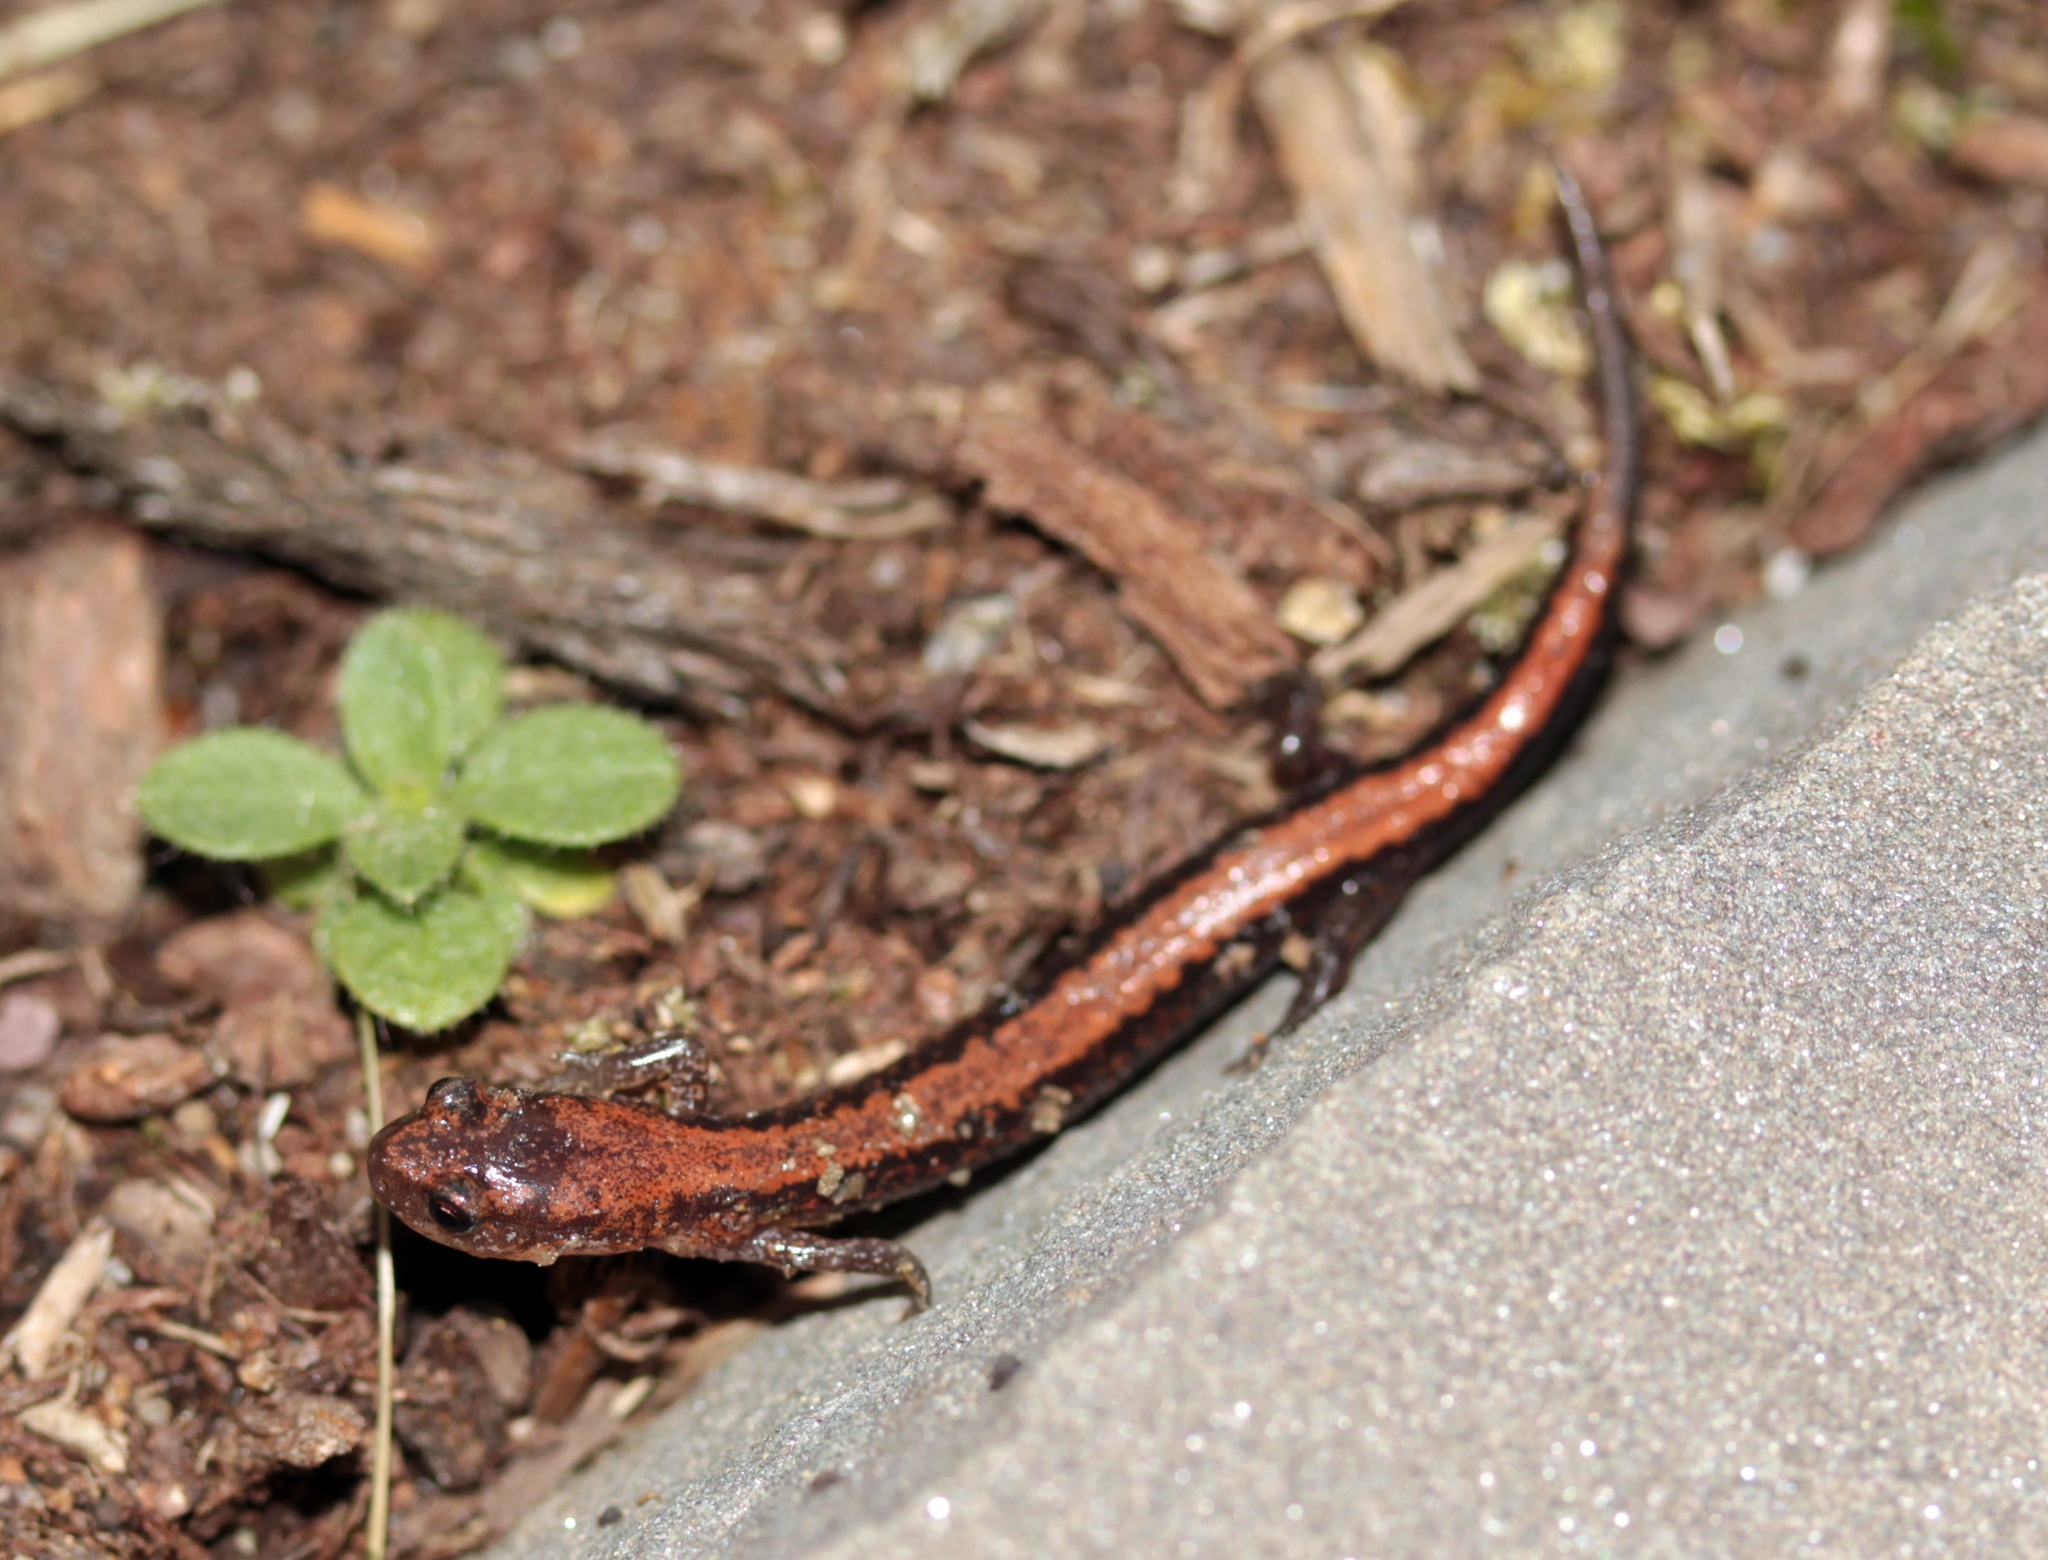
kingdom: Animalia
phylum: Chordata
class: Amphibia
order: Caudata
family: Plethodontidae
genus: Plethodon
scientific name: Plethodon cinereus
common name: Redback salamander
